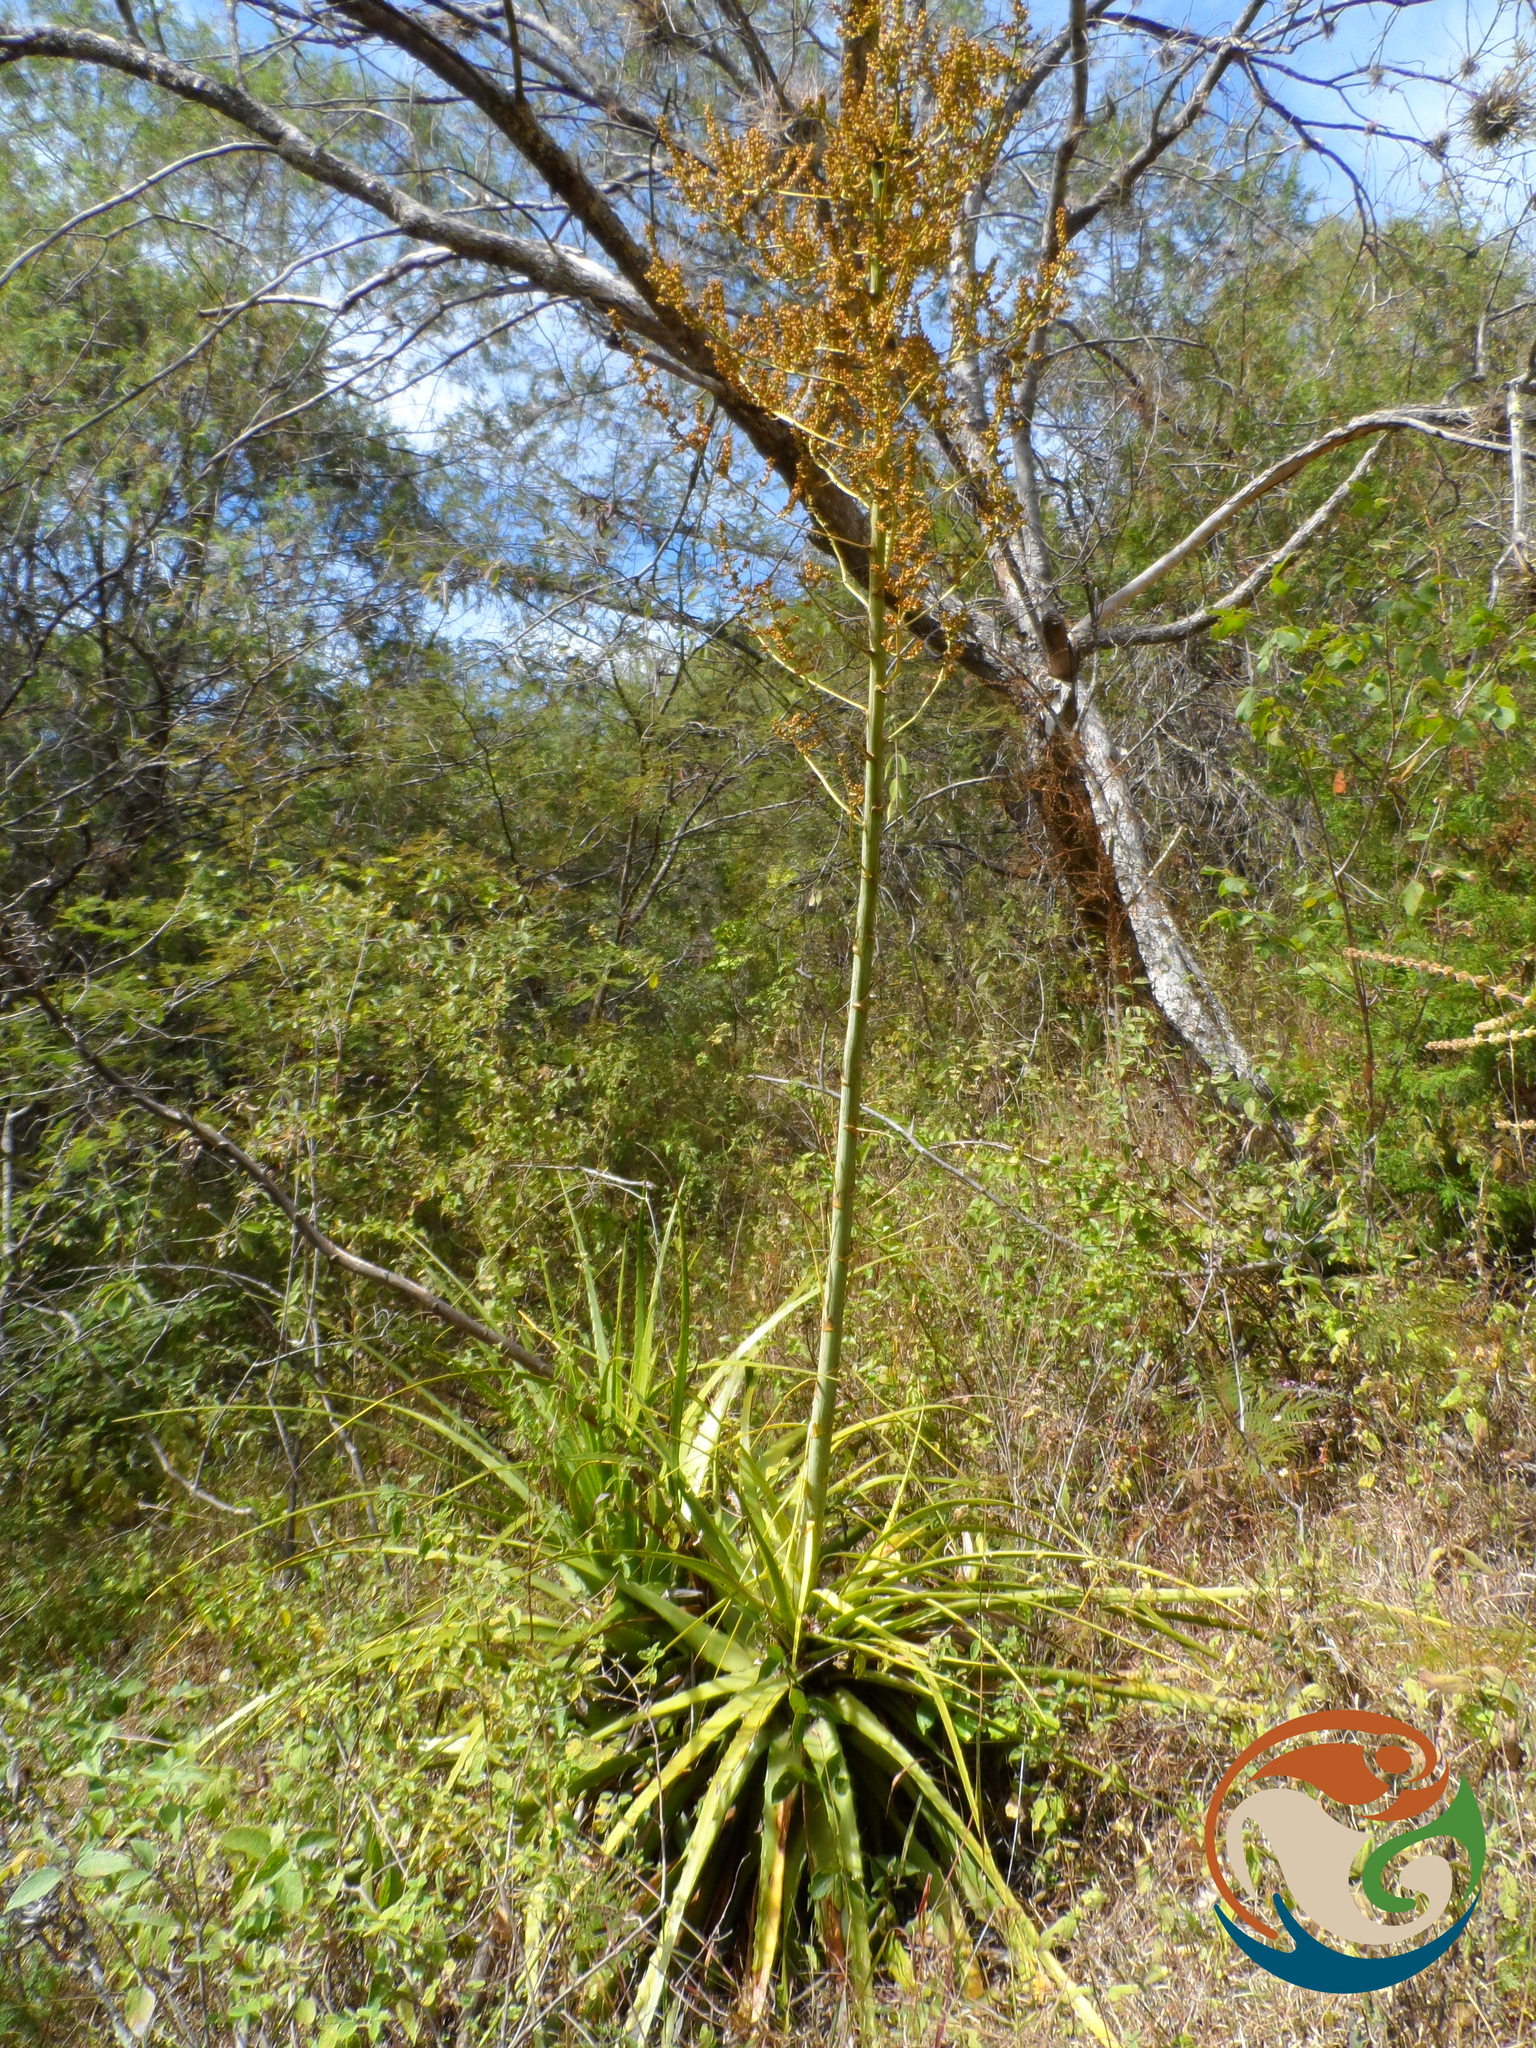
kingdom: Plantae
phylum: Tracheophyta
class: Liliopsida
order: Poales
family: Bromeliaceae
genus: Hechtia
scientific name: Hechtia sphaeroblasta
